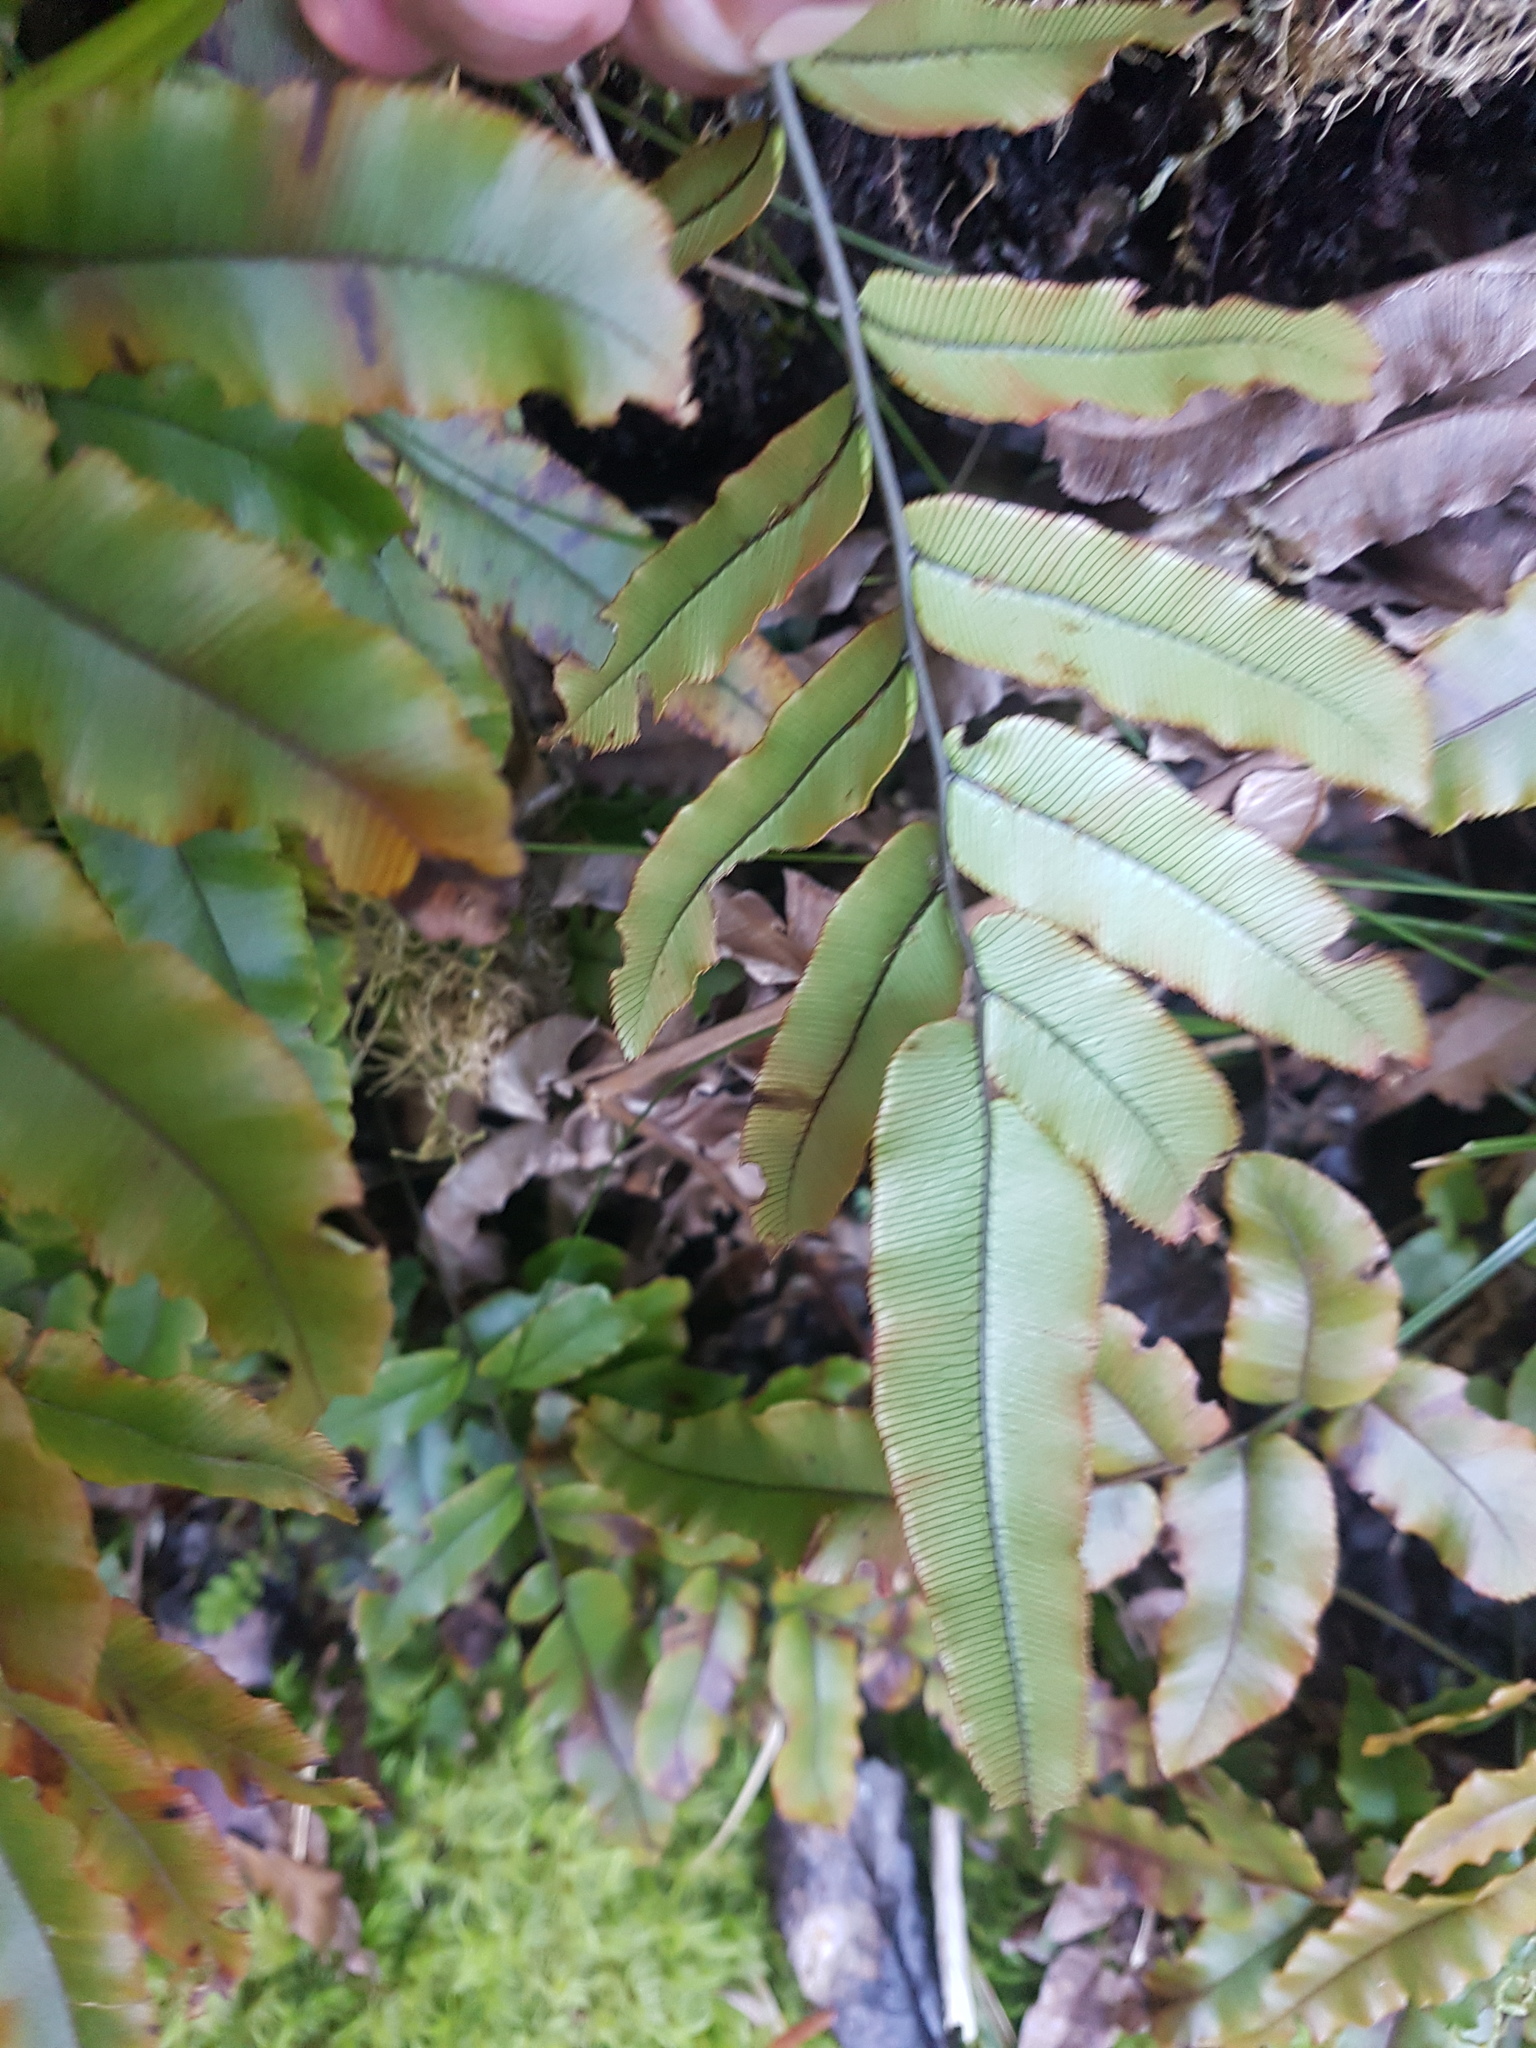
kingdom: Plantae
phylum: Tracheophyta
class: Polypodiopsida
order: Polypodiales
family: Blechnaceae
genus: Parablechnum
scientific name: Parablechnum procerum
